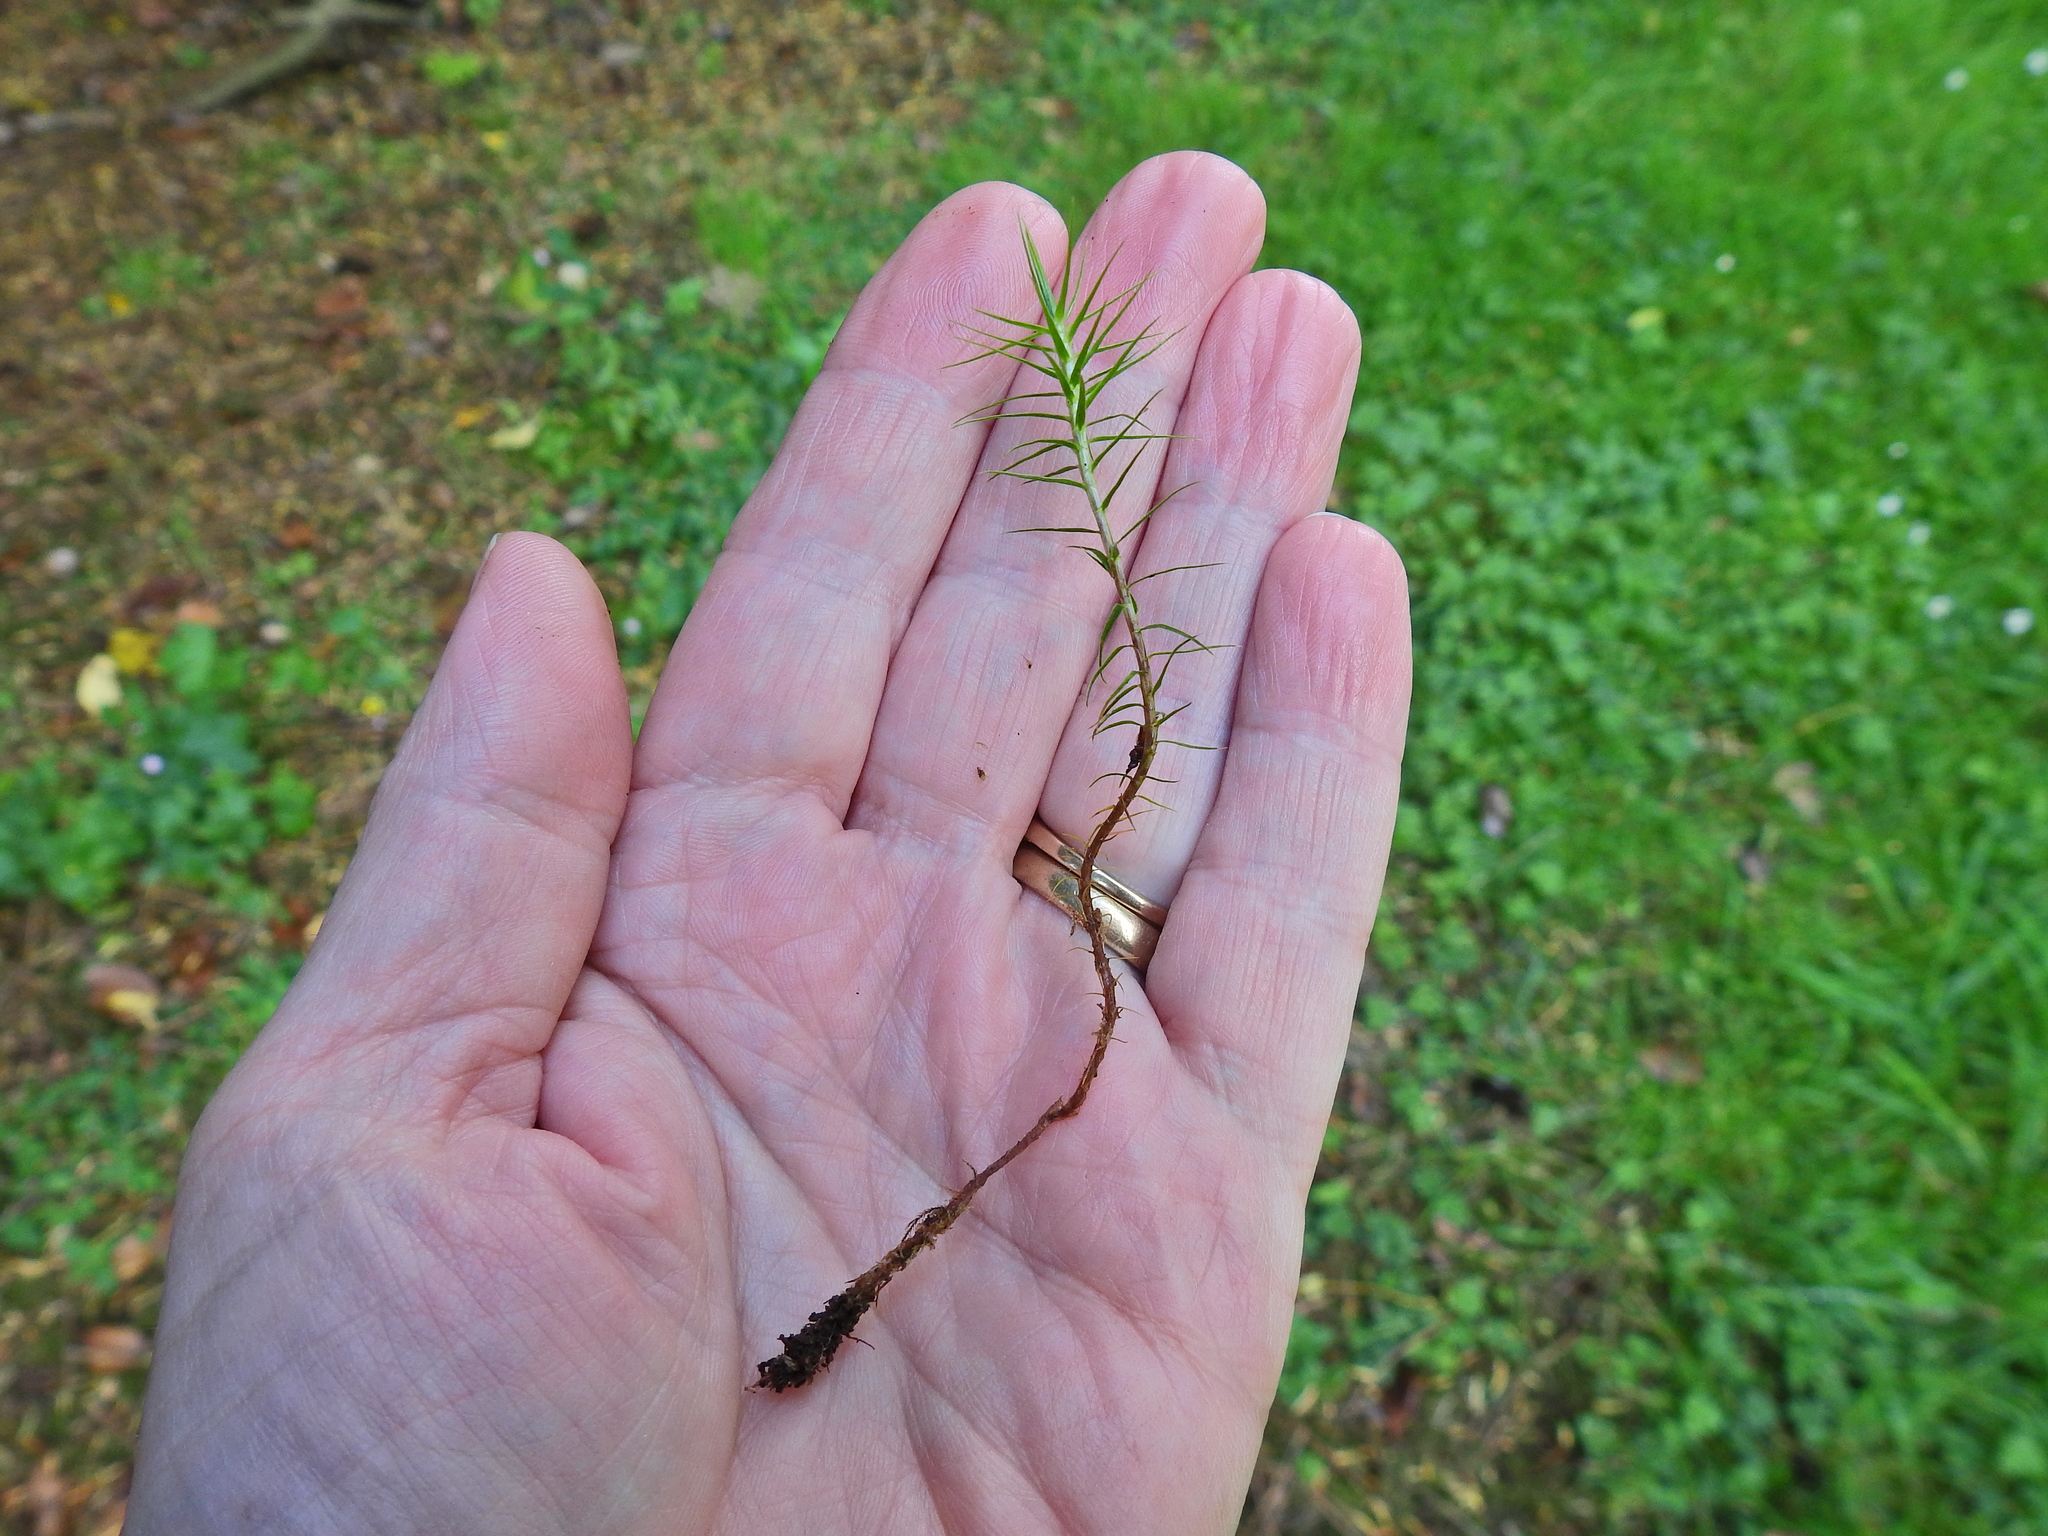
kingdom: Plantae
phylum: Bryophyta
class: Polytrichopsida
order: Polytrichales
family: Polytrichaceae
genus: Polytrichum
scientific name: Polytrichum formosum
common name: Bank haircap moss
